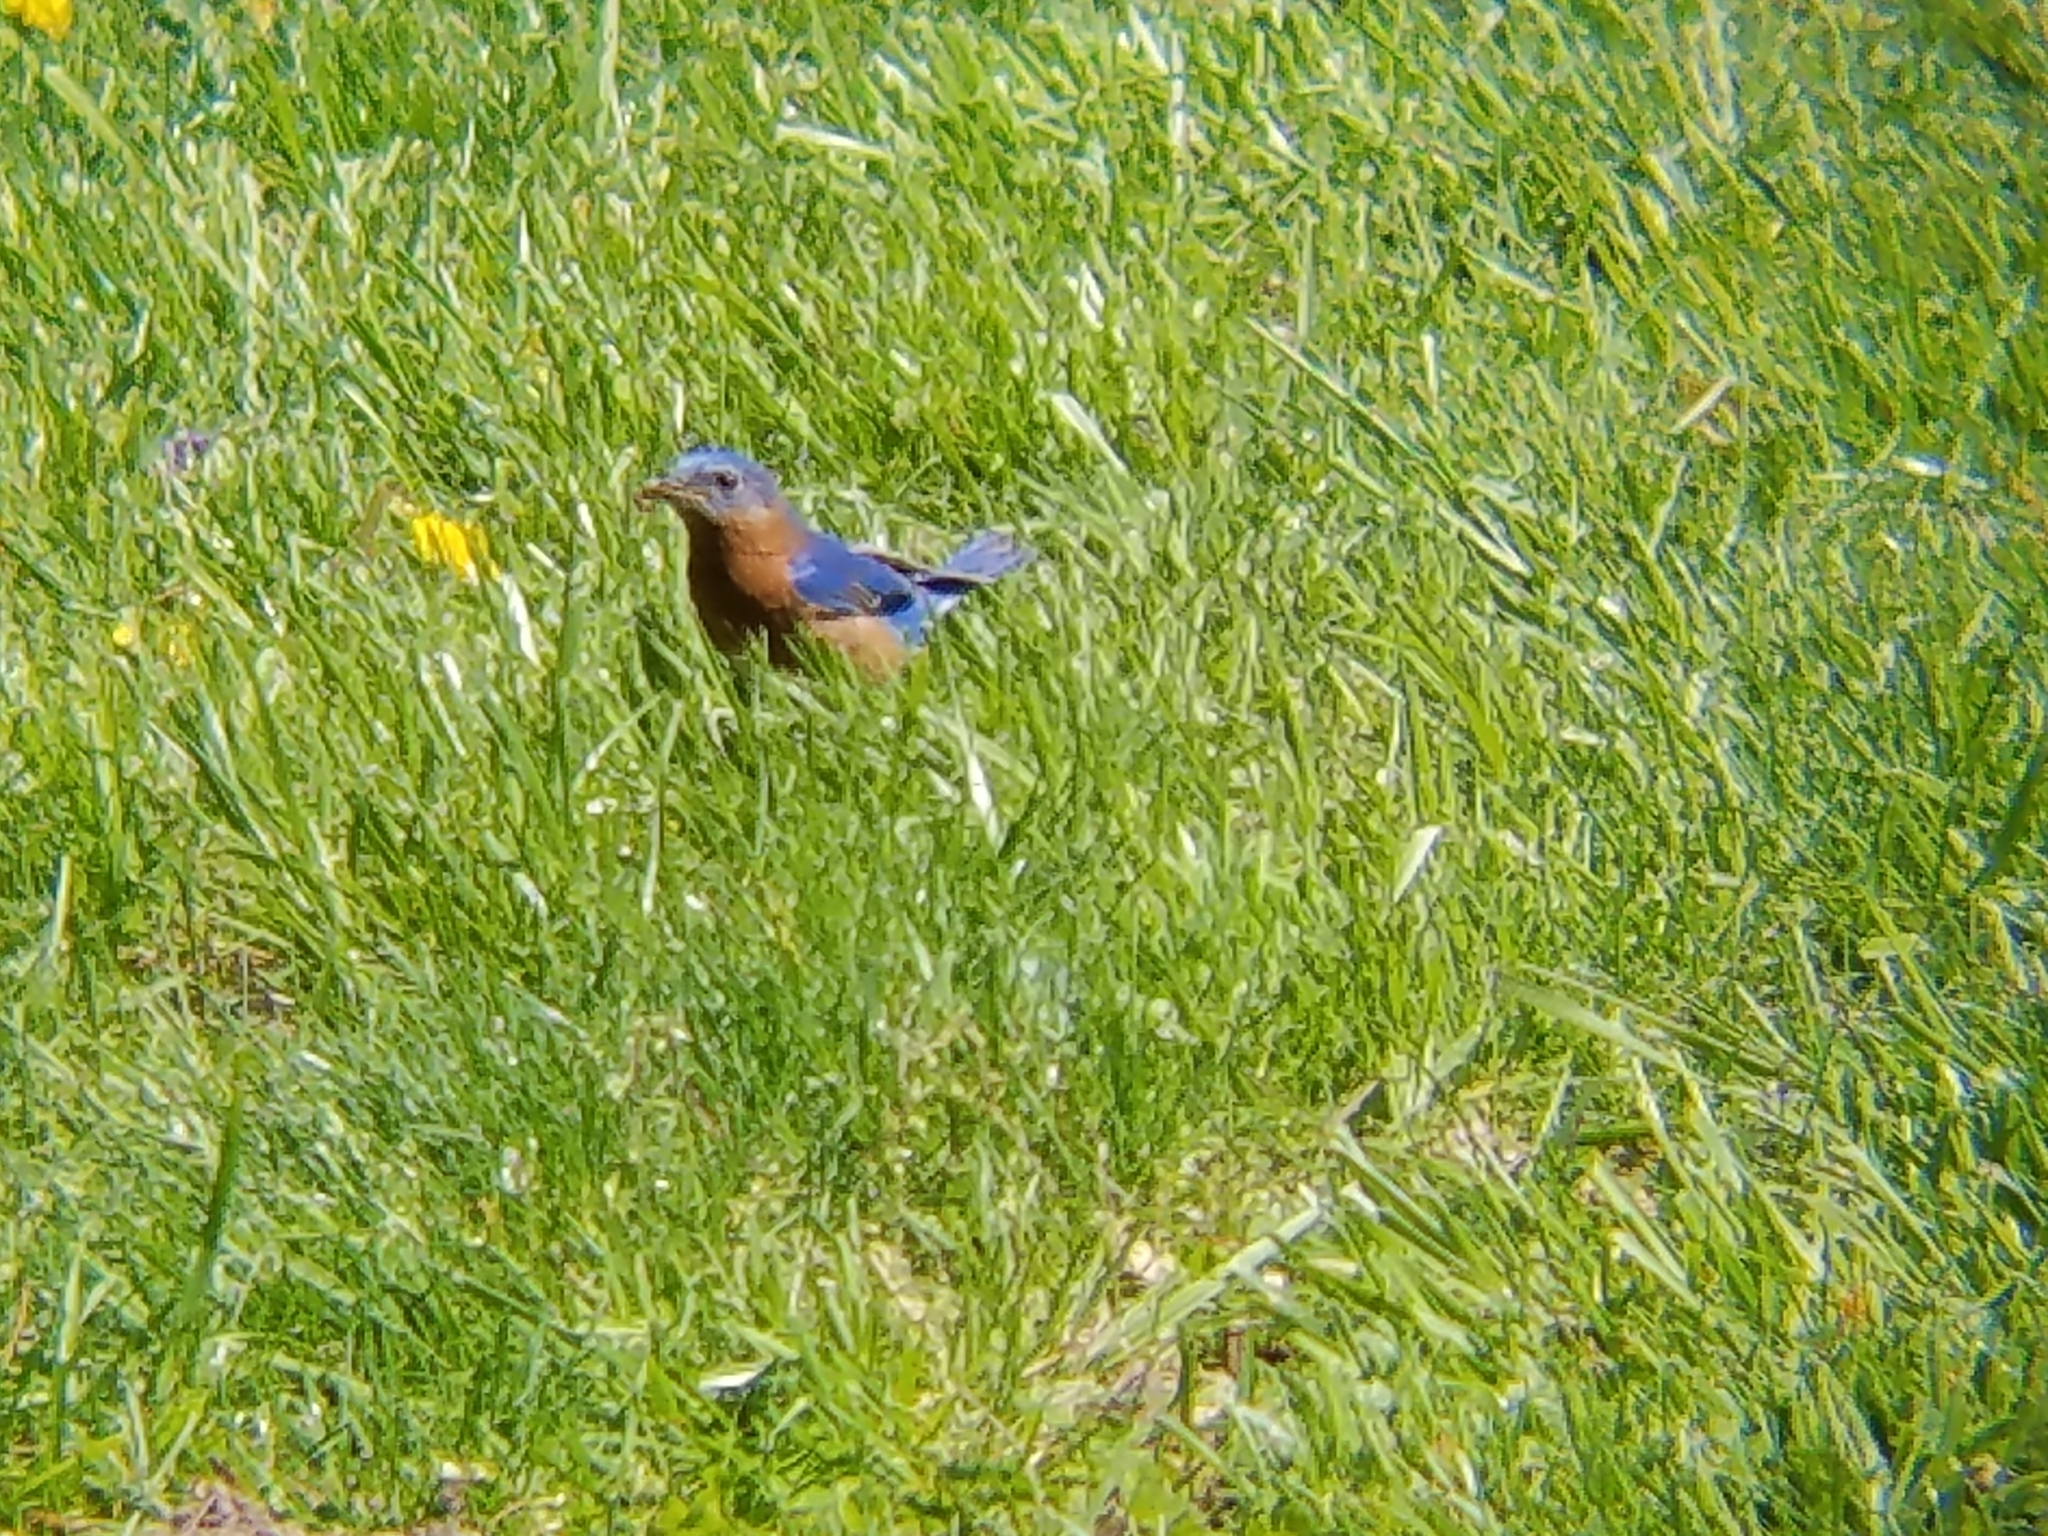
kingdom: Animalia
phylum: Chordata
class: Aves
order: Passeriformes
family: Turdidae
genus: Sialia
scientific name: Sialia sialis
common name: Eastern bluebird
